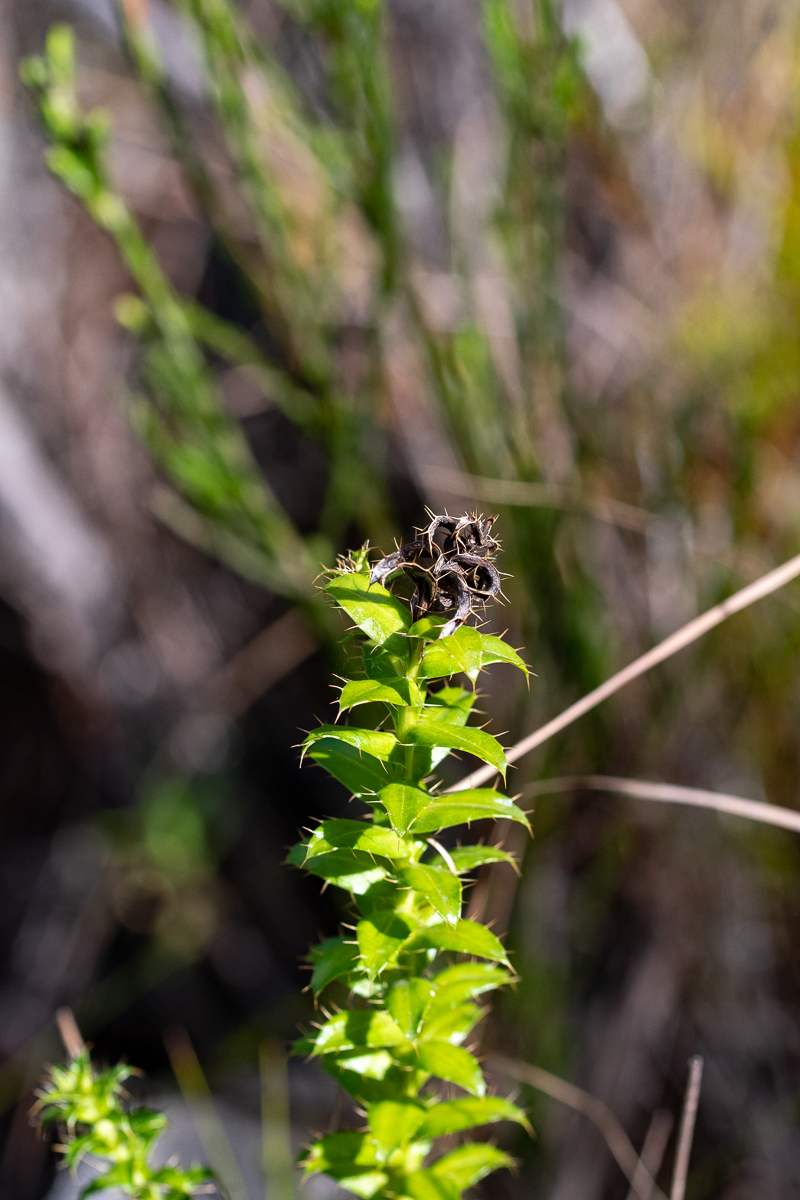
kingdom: Plantae
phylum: Tracheophyta
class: Magnoliopsida
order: Asterales
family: Asteraceae
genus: Cullumia
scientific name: Cullumia setosa
